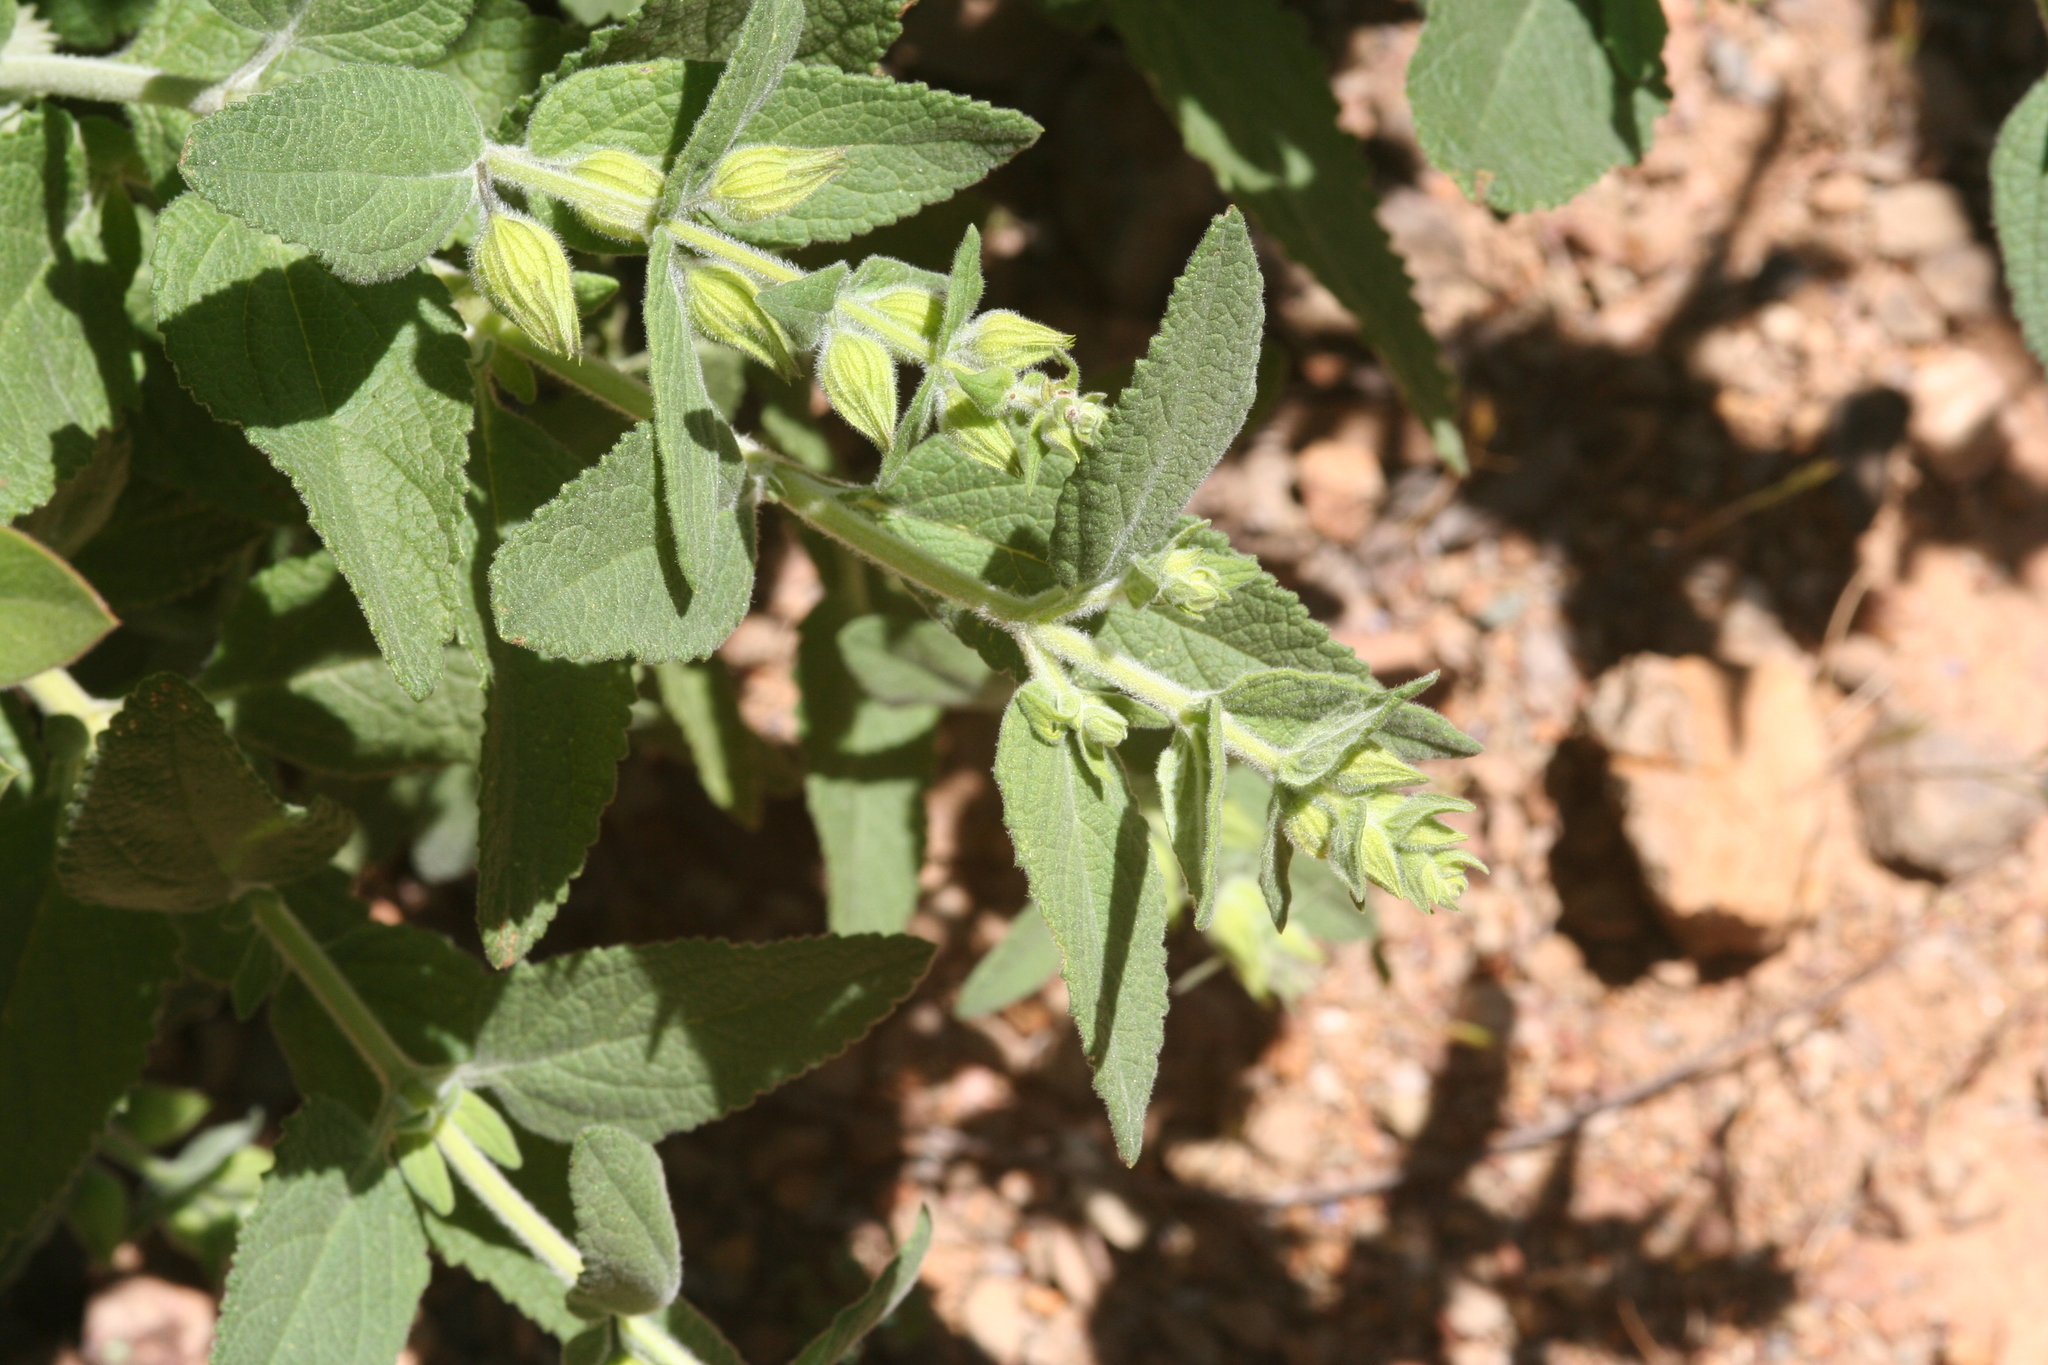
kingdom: Plantae
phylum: Tracheophyta
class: Magnoliopsida
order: Lamiales
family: Lamiaceae
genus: Lepechinia
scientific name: Lepechinia calycina
